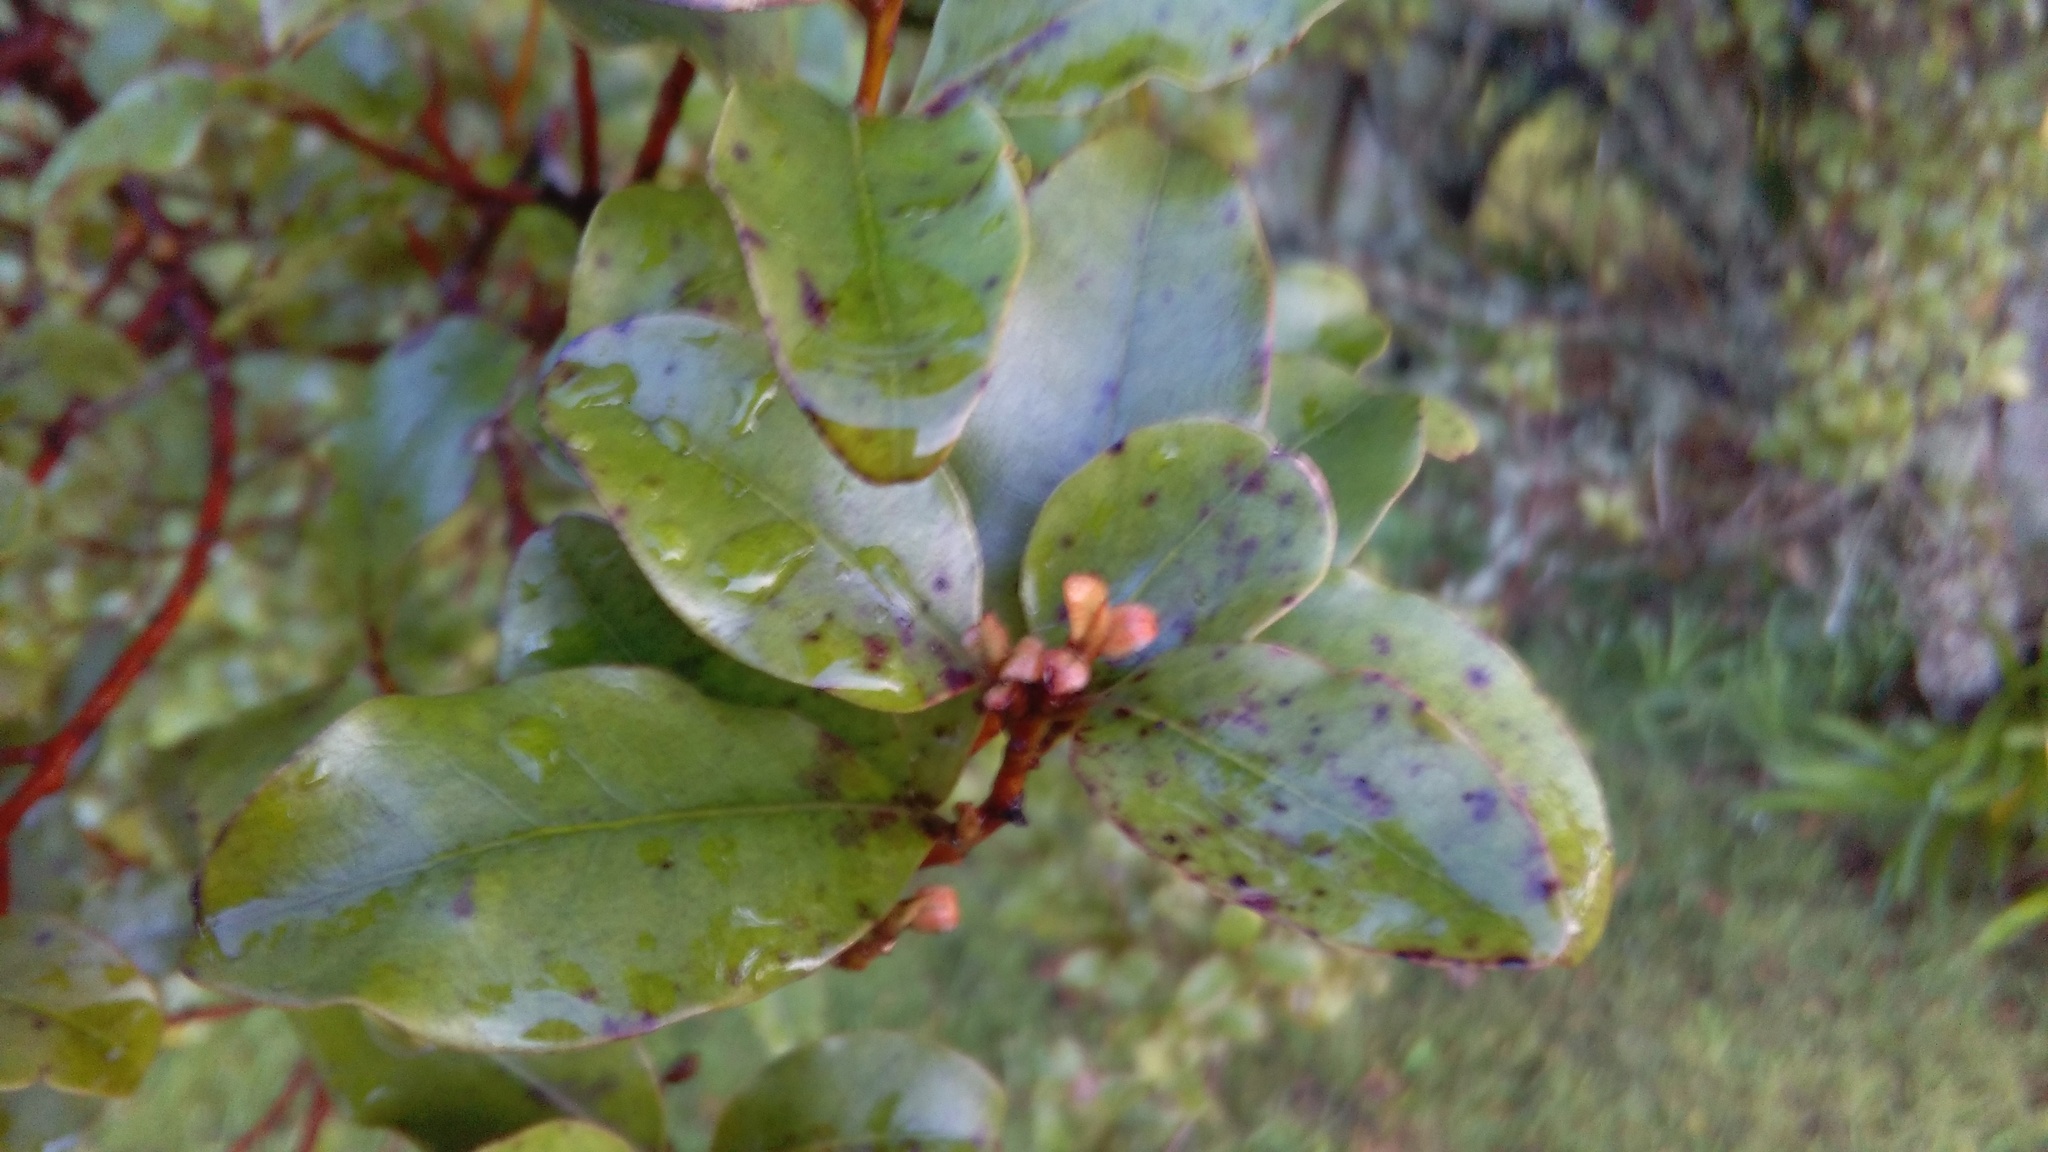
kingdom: Plantae
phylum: Tracheophyta
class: Magnoliopsida
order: Ericales
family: Primulaceae
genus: Myrsine
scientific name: Myrsine australis
